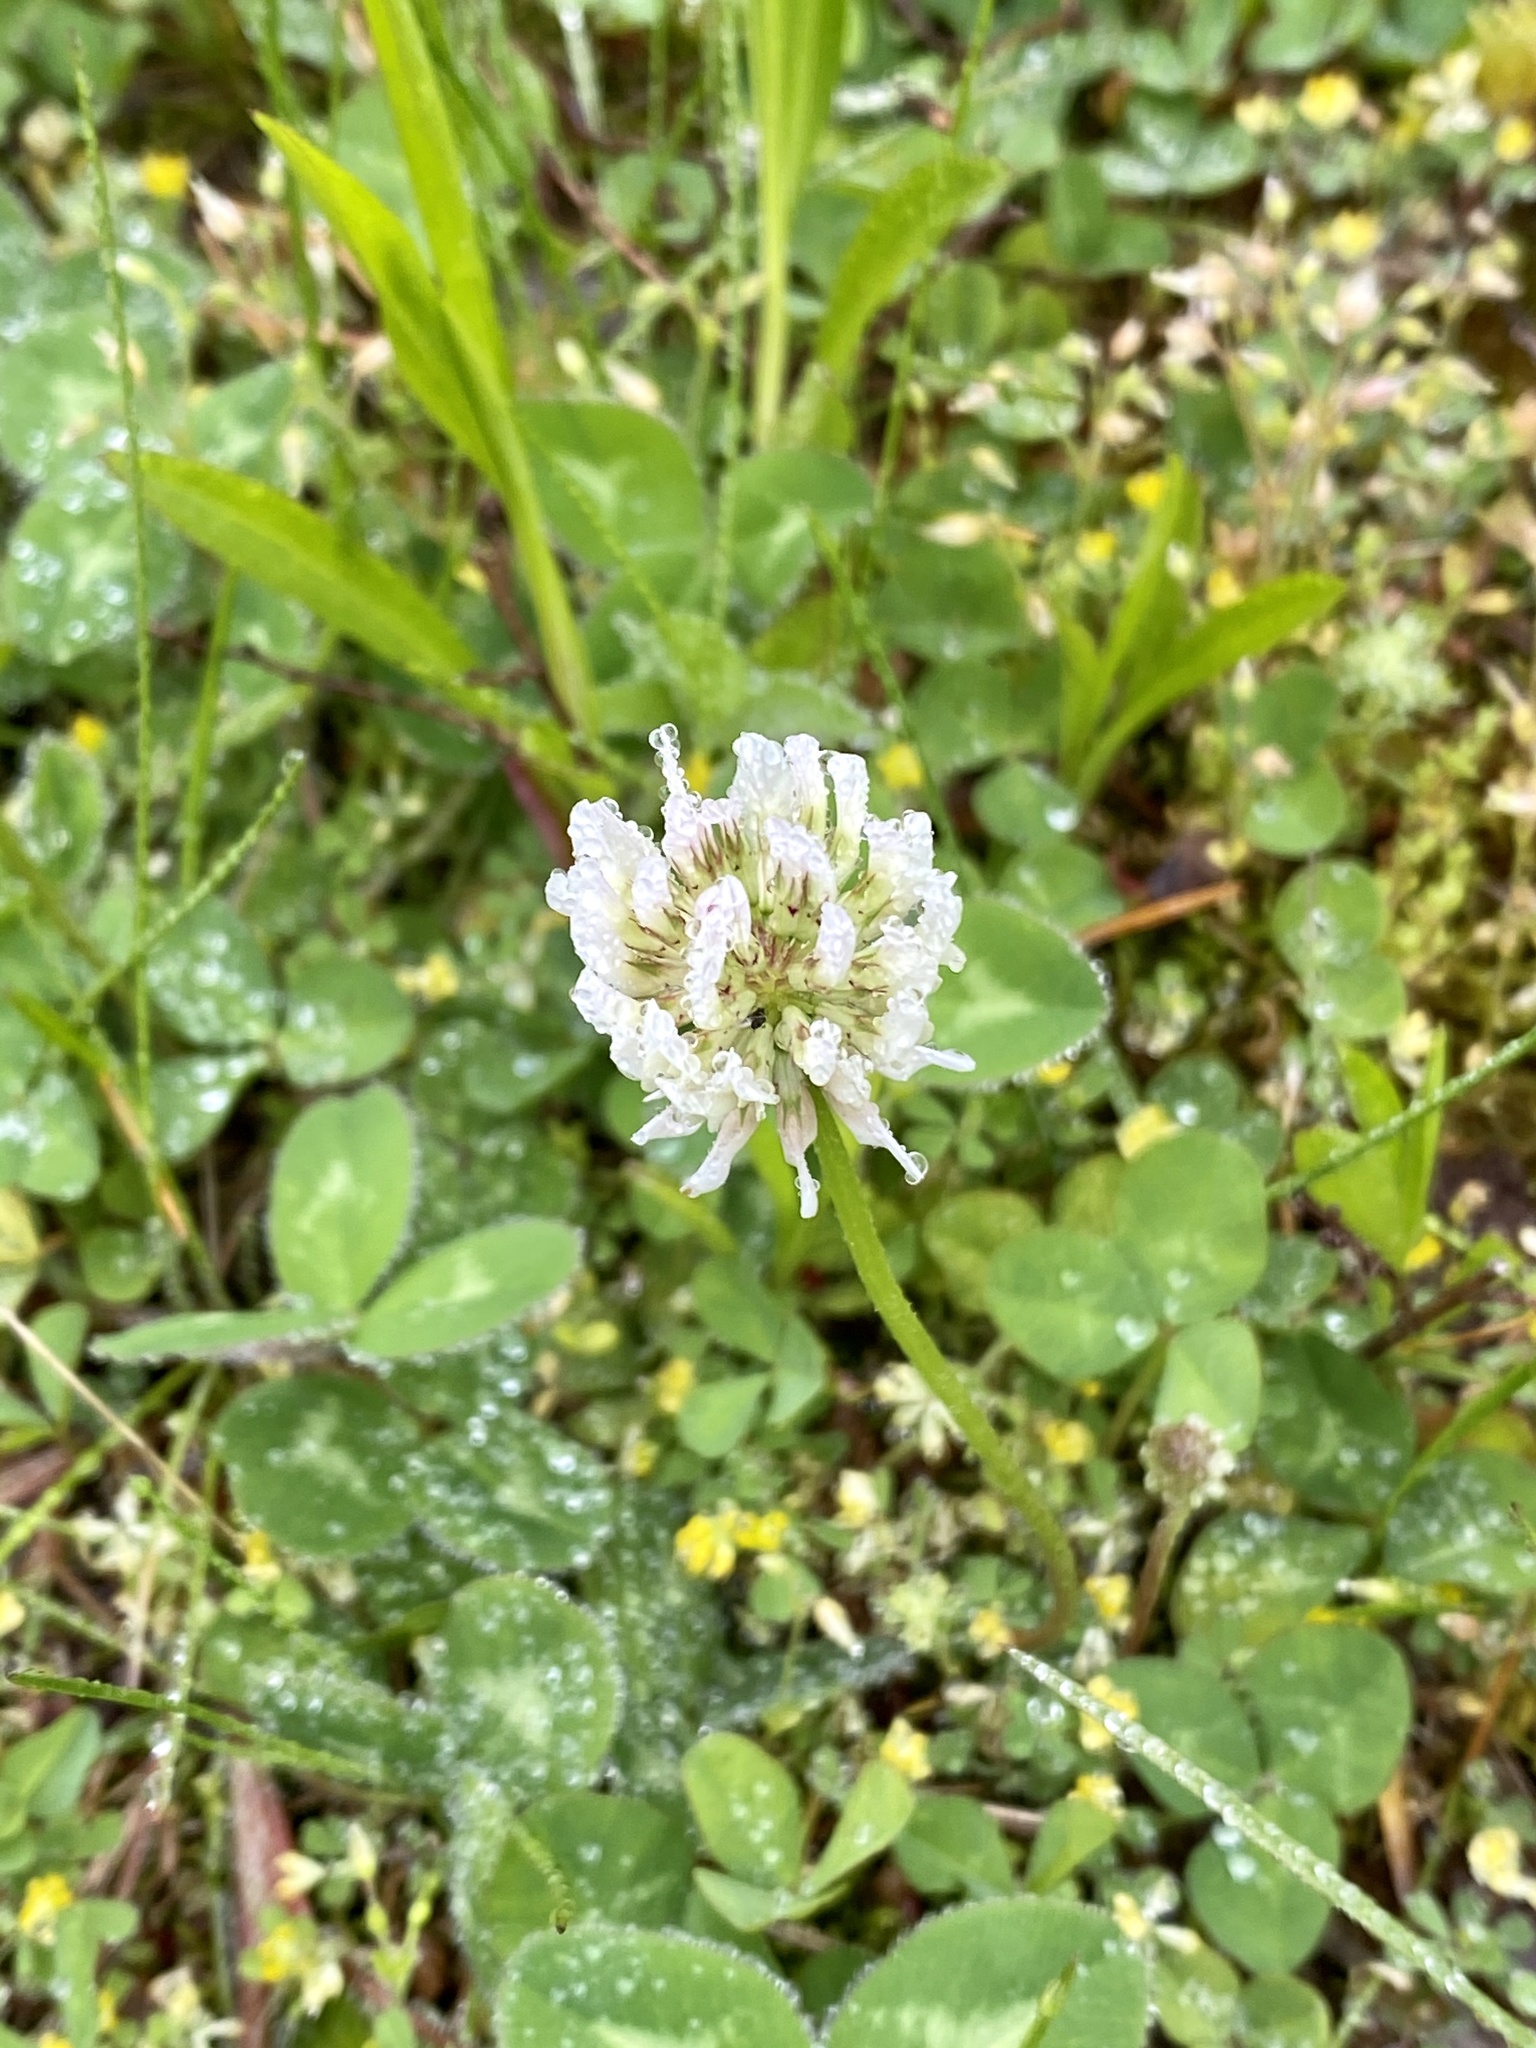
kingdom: Plantae
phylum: Tracheophyta
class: Magnoliopsida
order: Fabales
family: Fabaceae
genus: Trifolium
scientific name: Trifolium repens
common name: White clover
